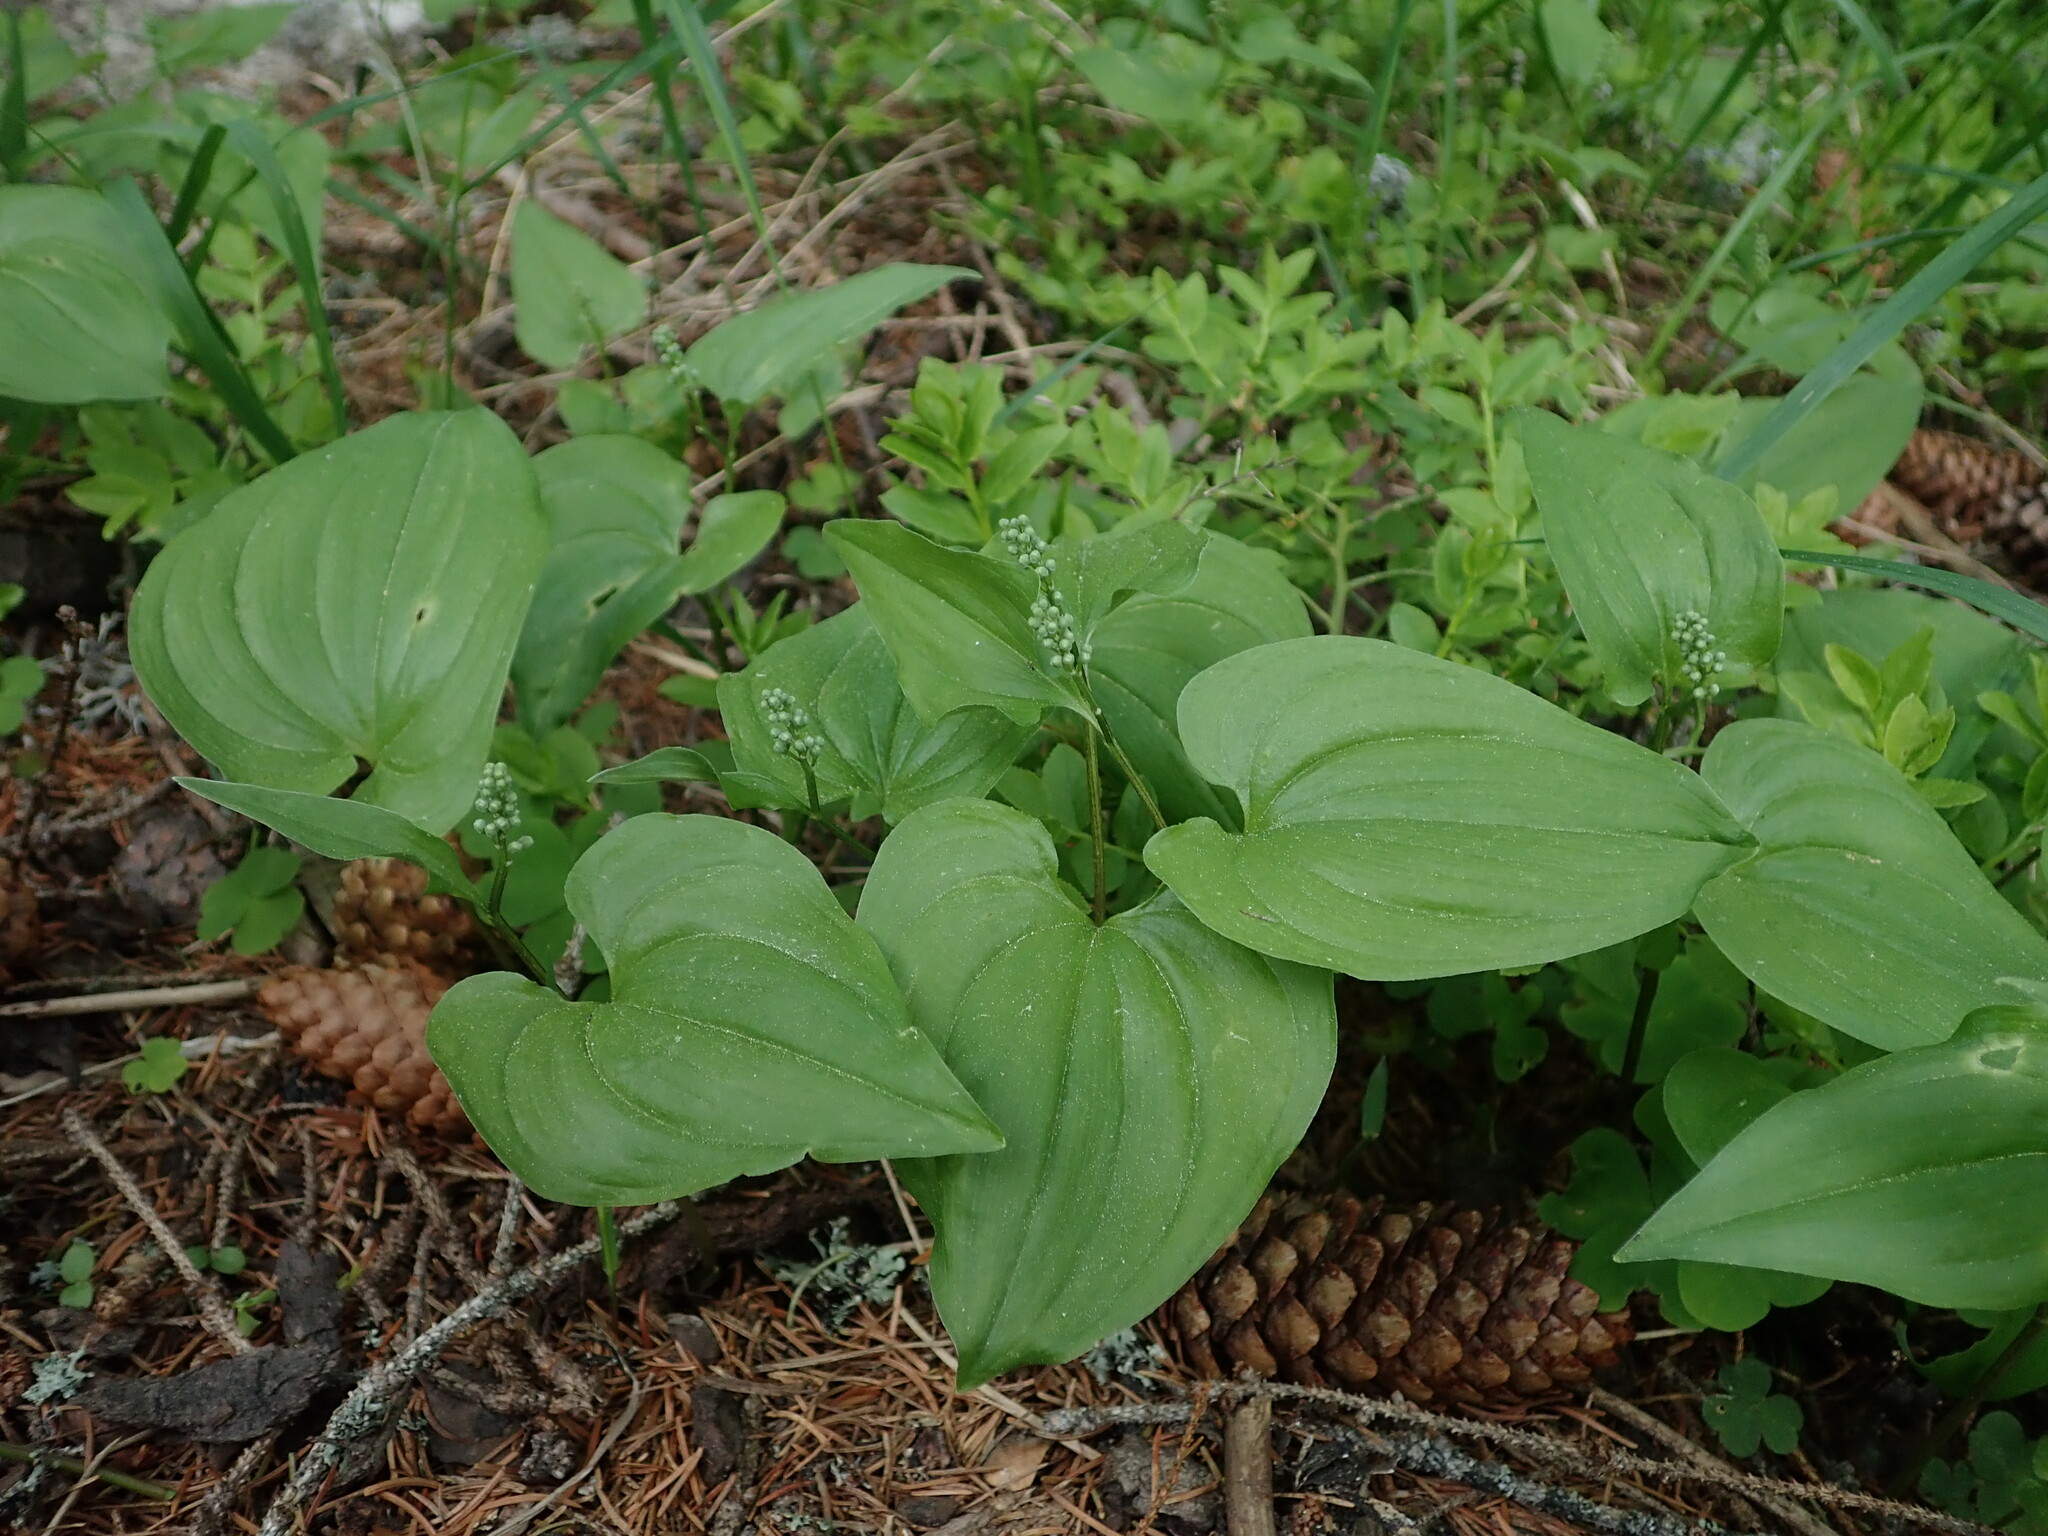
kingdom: Plantae
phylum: Tracheophyta
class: Liliopsida
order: Asparagales
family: Asparagaceae
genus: Maianthemum
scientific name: Maianthemum bifolium
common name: May lily
